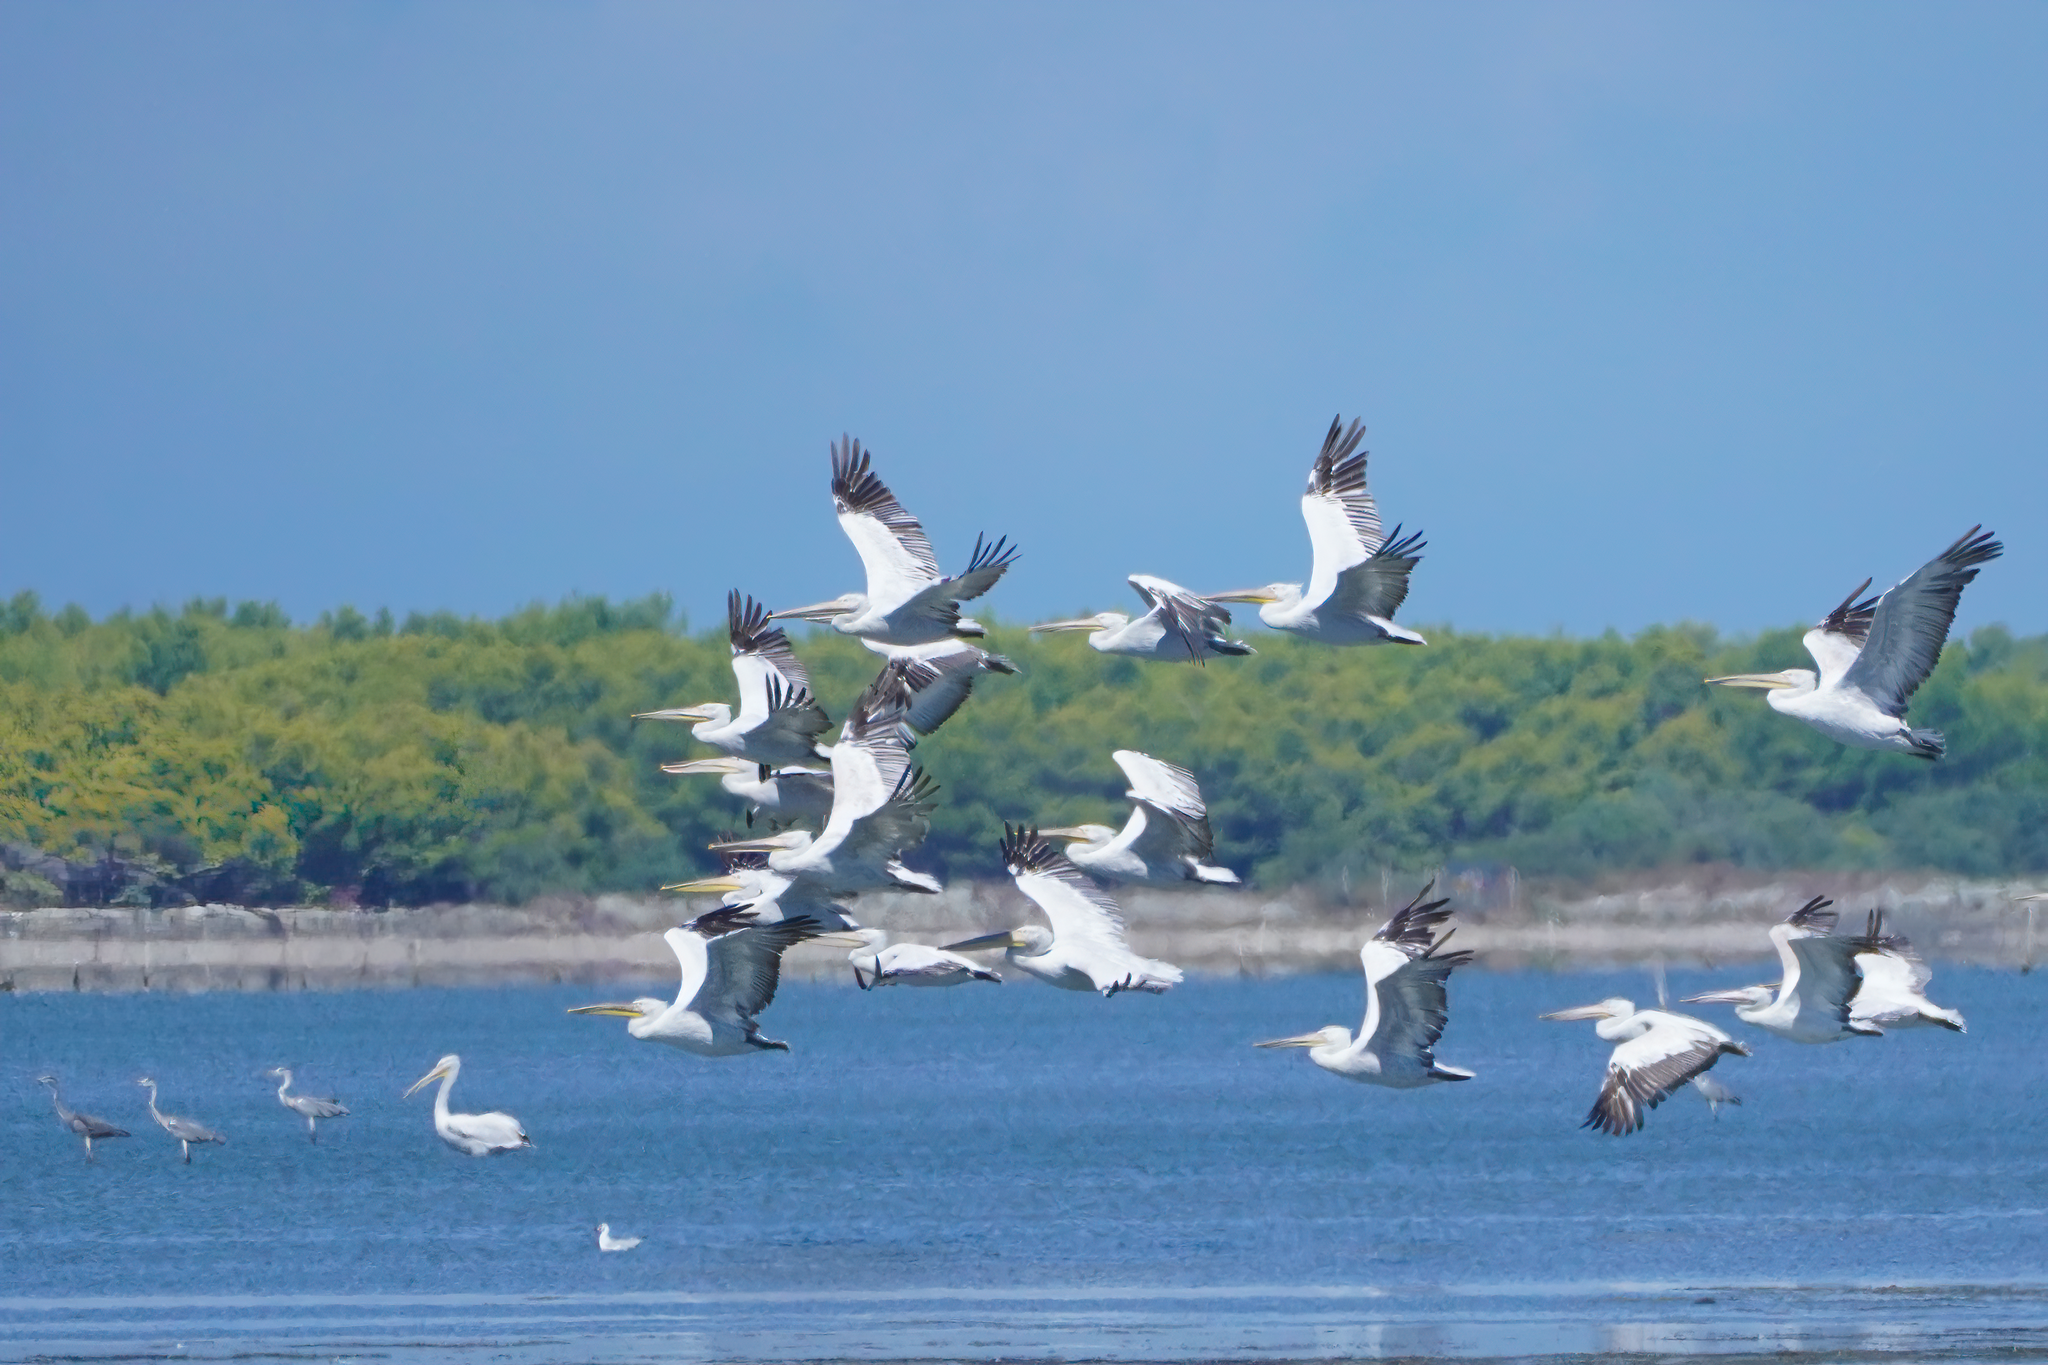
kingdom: Animalia
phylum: Chordata
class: Aves
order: Pelecaniformes
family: Pelecanidae
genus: Pelecanus
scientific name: Pelecanus crispus
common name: Dalmatian pelican
